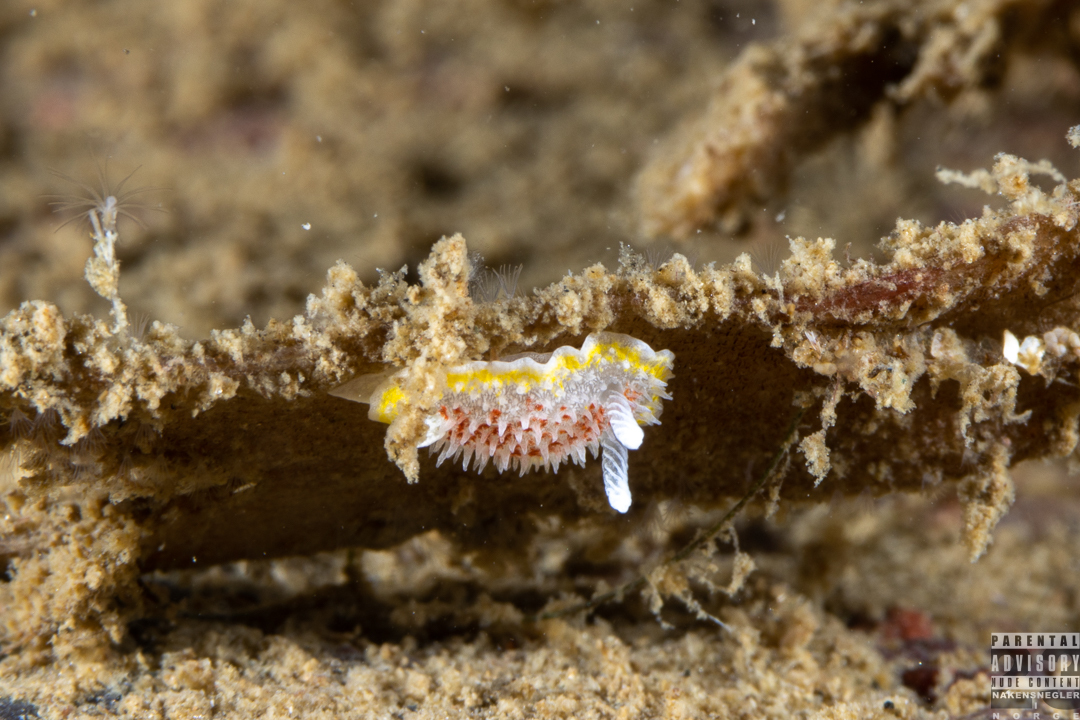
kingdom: Animalia
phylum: Mollusca
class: Gastropoda
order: Nudibranchia
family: Calycidorididae
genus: Diaphorodoris
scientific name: Diaphorodoris luteocincta
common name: Fried egg nudibranch
